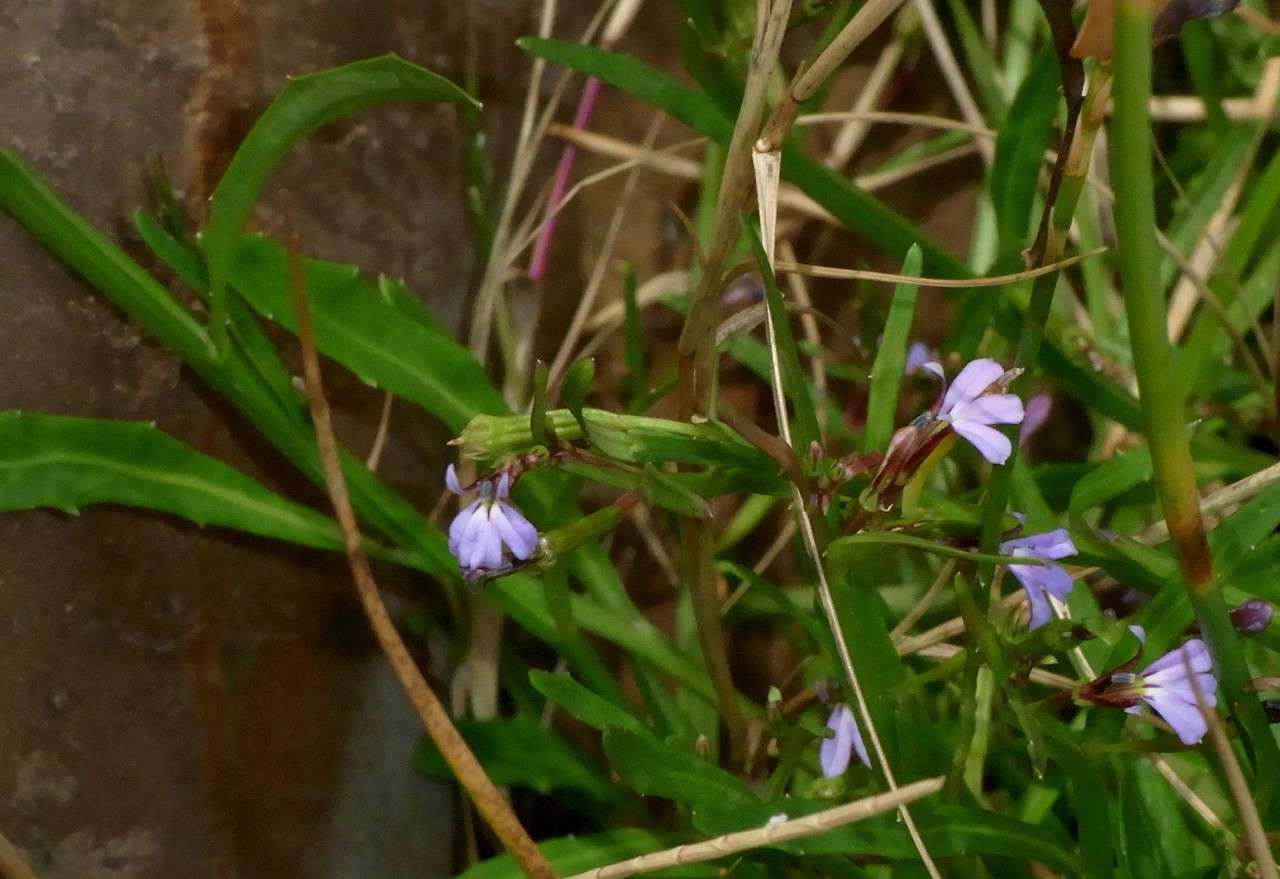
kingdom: Plantae
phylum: Tracheophyta
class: Magnoliopsida
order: Asterales
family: Campanulaceae
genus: Lobelia
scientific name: Lobelia anceps
